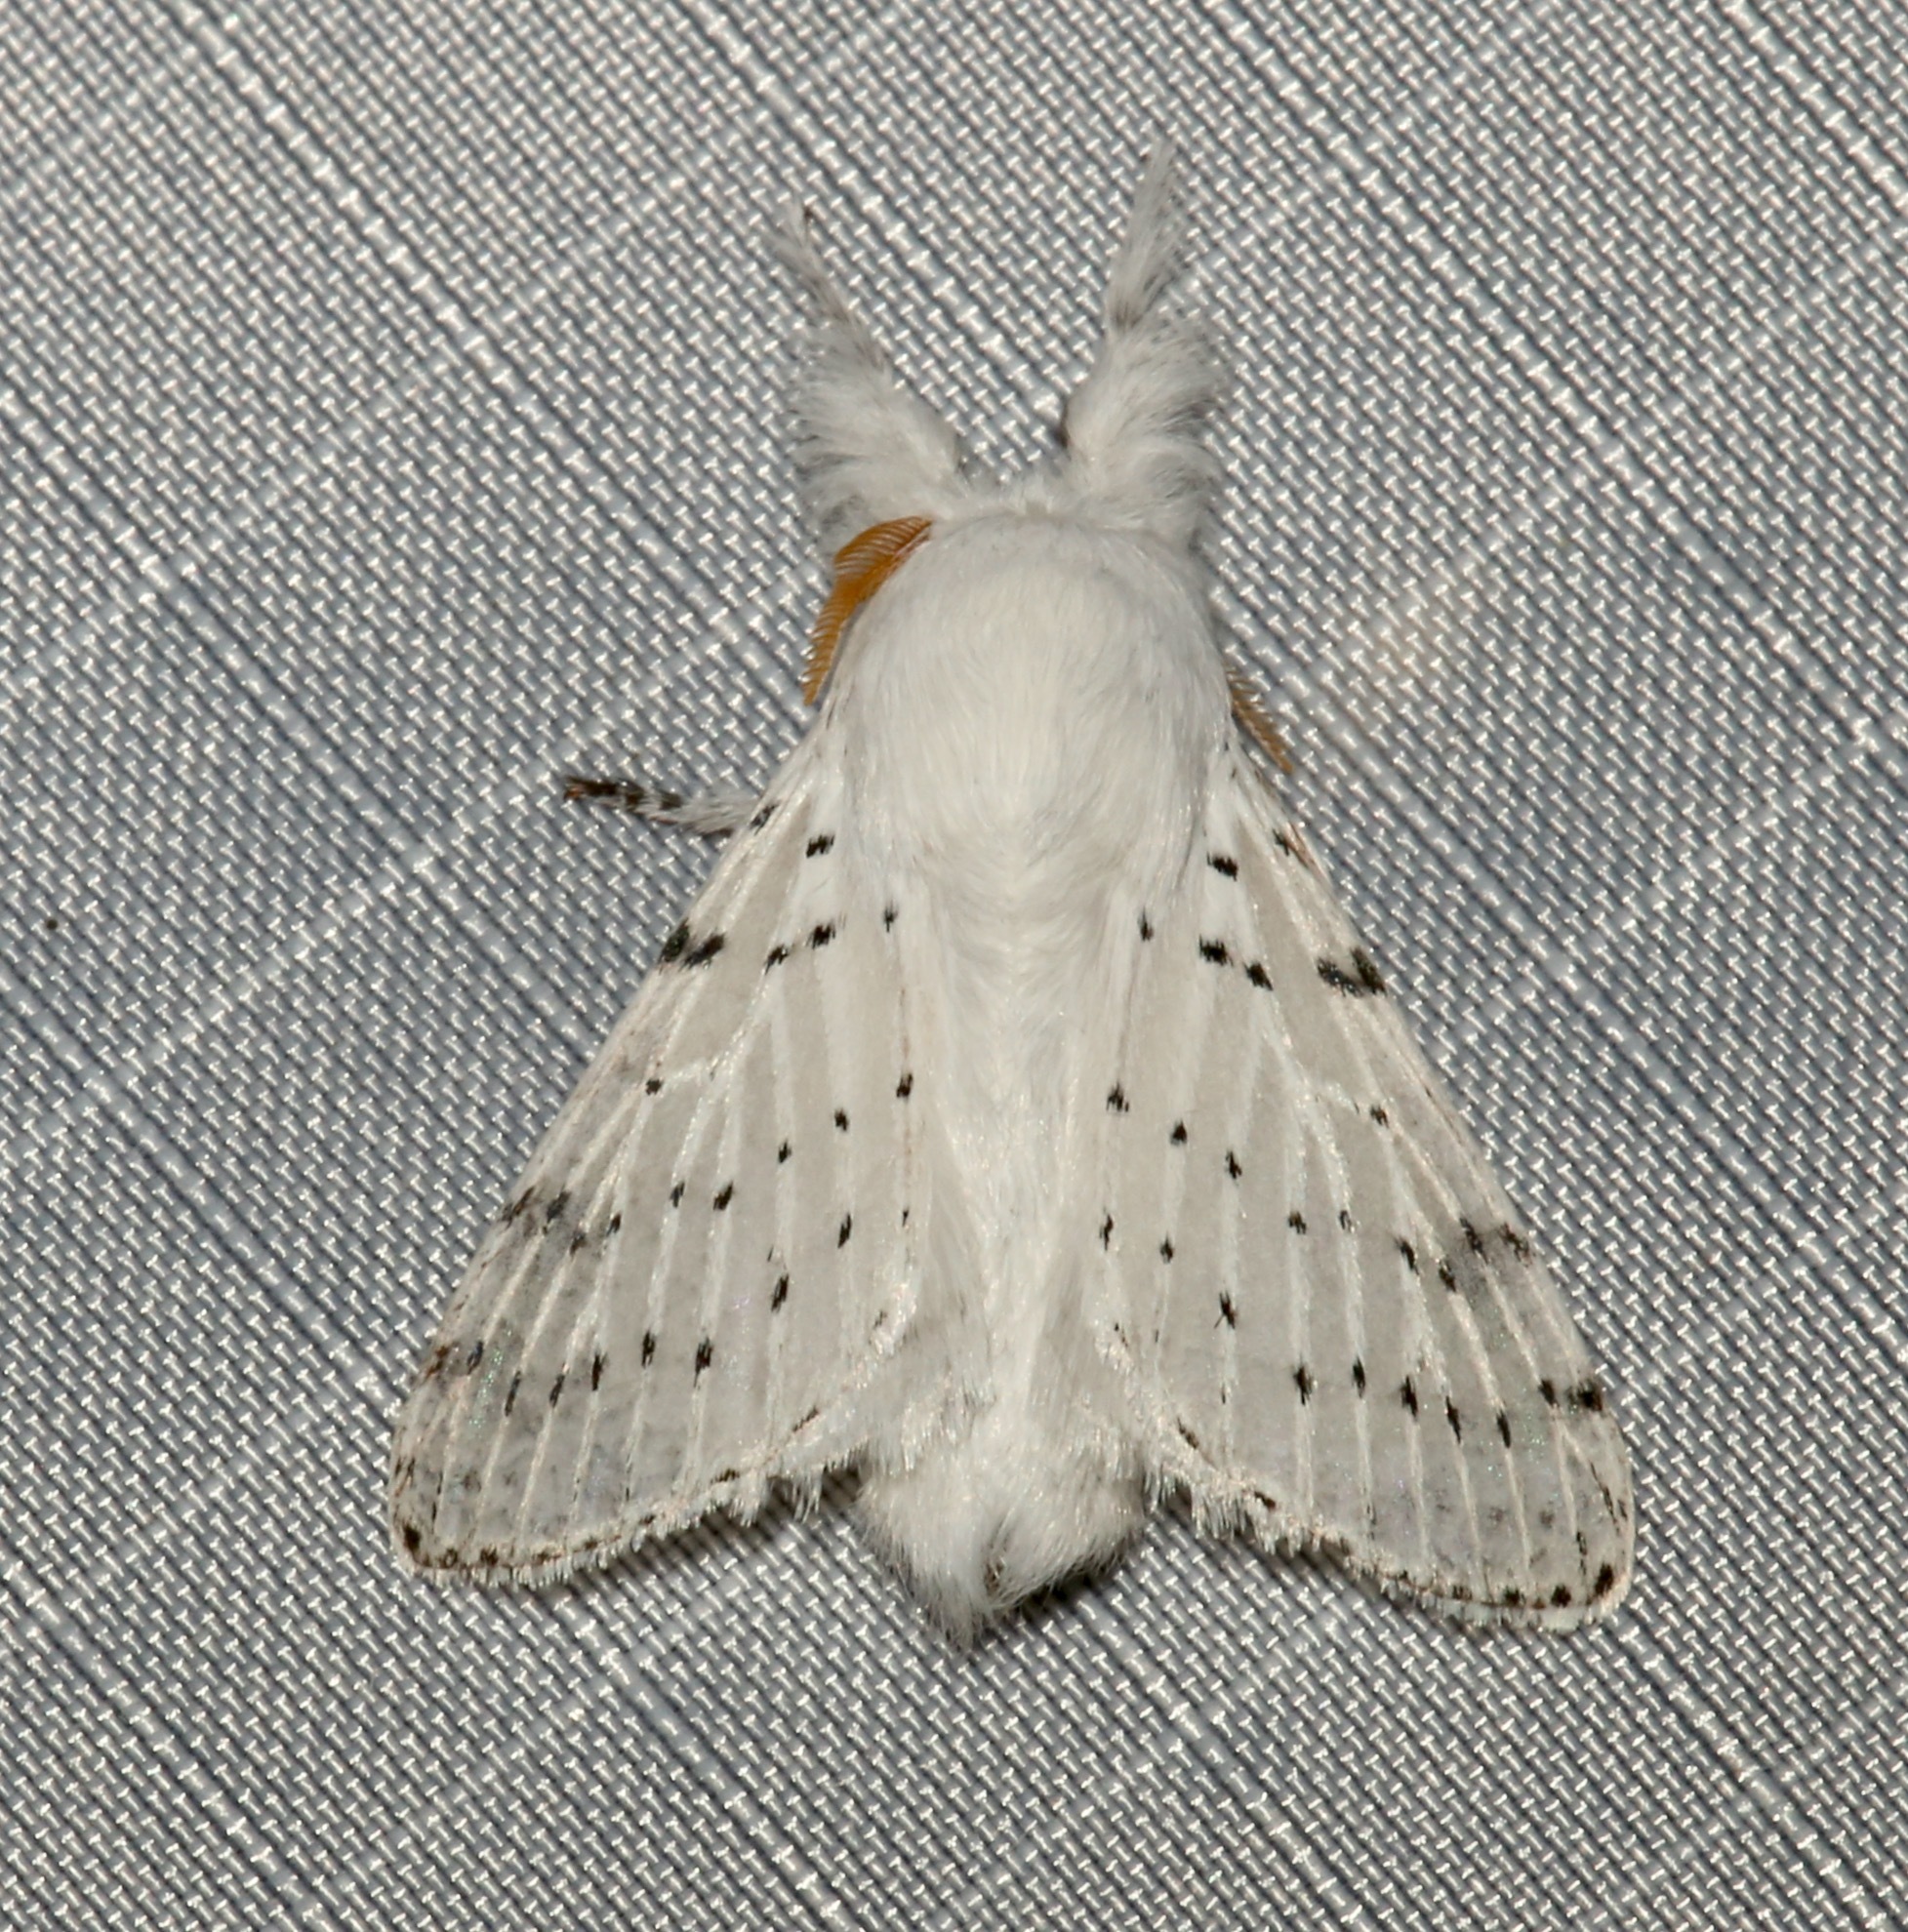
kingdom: Animalia
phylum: Arthropoda
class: Insecta
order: Lepidoptera
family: Lasiocampidae
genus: Artace
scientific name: Artace cribrarius
